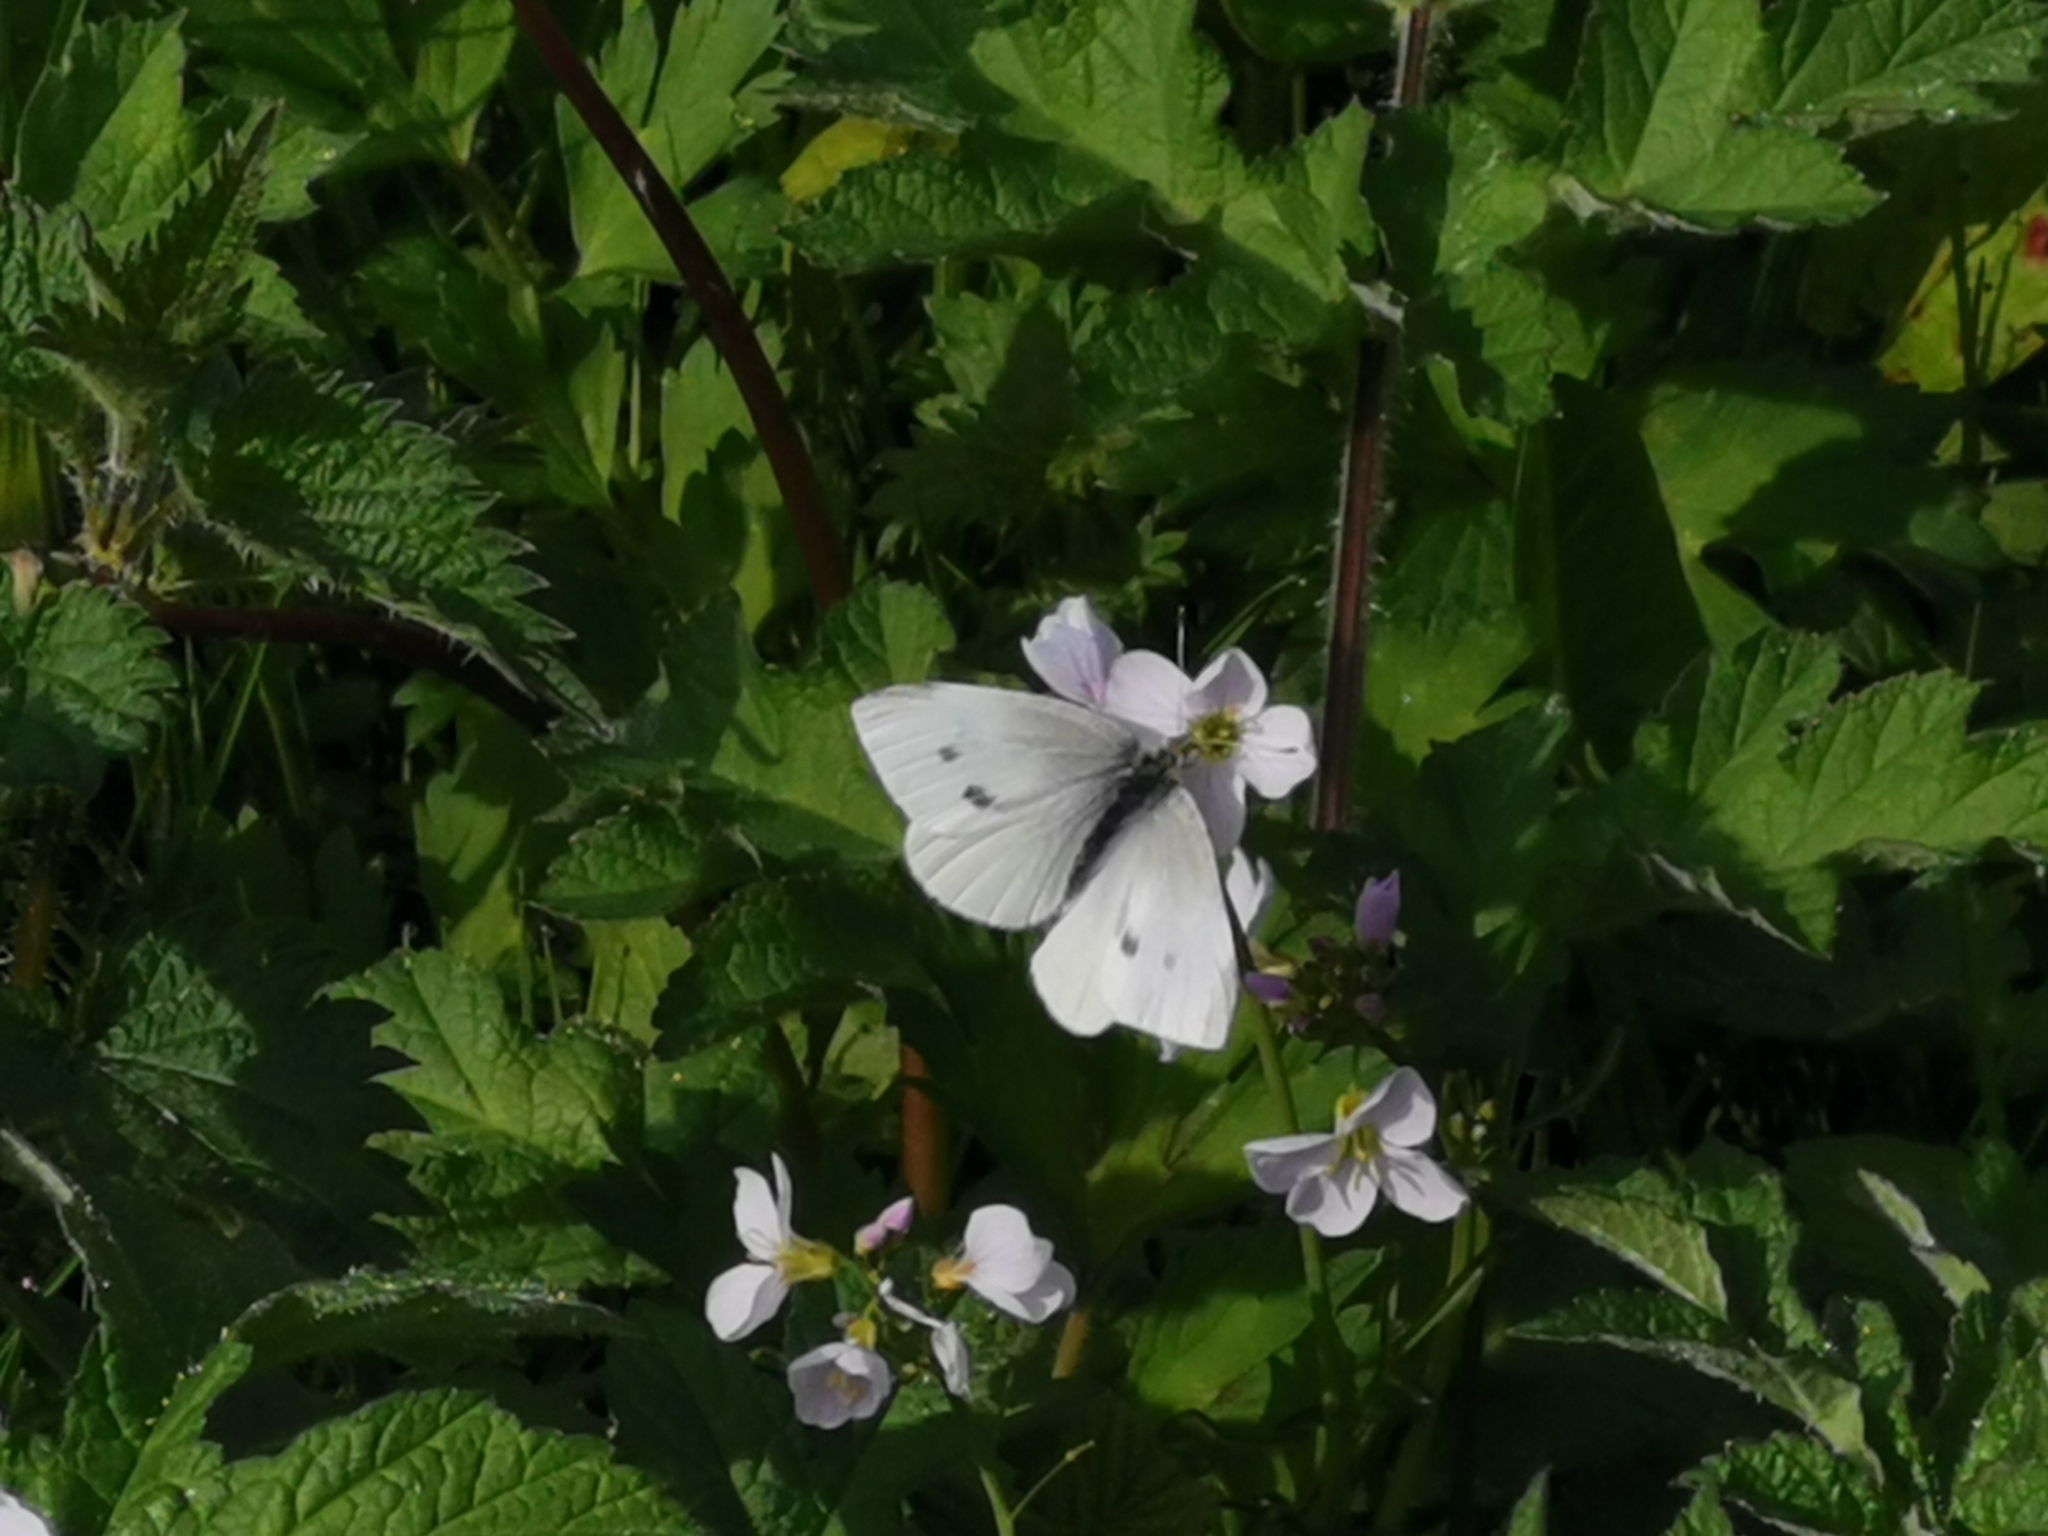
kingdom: Animalia
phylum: Arthropoda
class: Insecta
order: Lepidoptera
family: Pieridae
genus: Pieris
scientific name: Pieris rapae
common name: Small white
